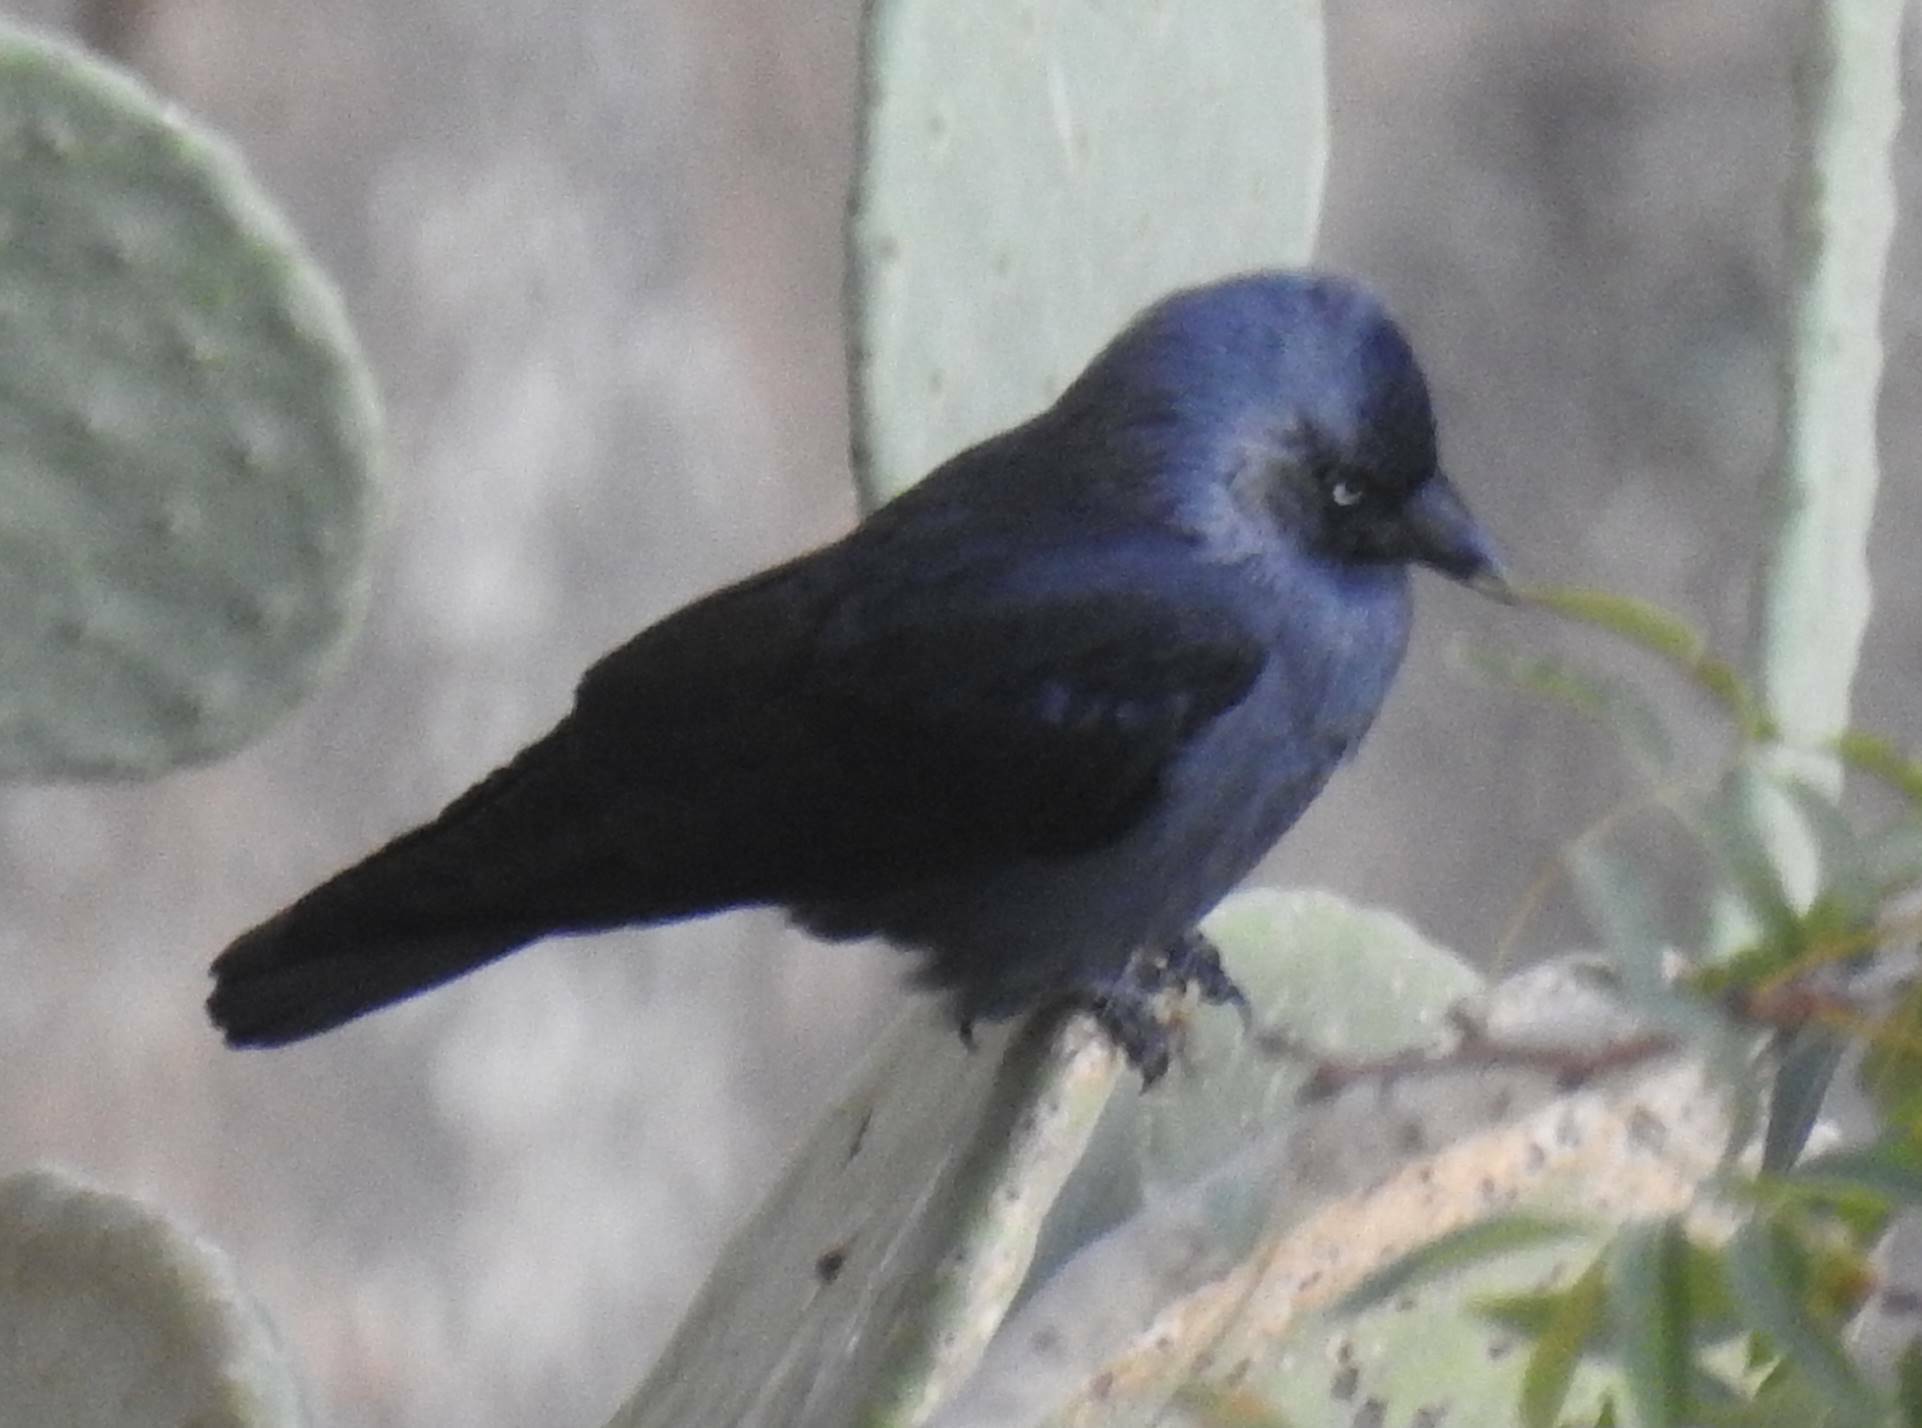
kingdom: Animalia
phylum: Chordata
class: Aves
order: Passeriformes
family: Corvidae
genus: Coloeus
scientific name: Coloeus monedula
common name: Western jackdaw
